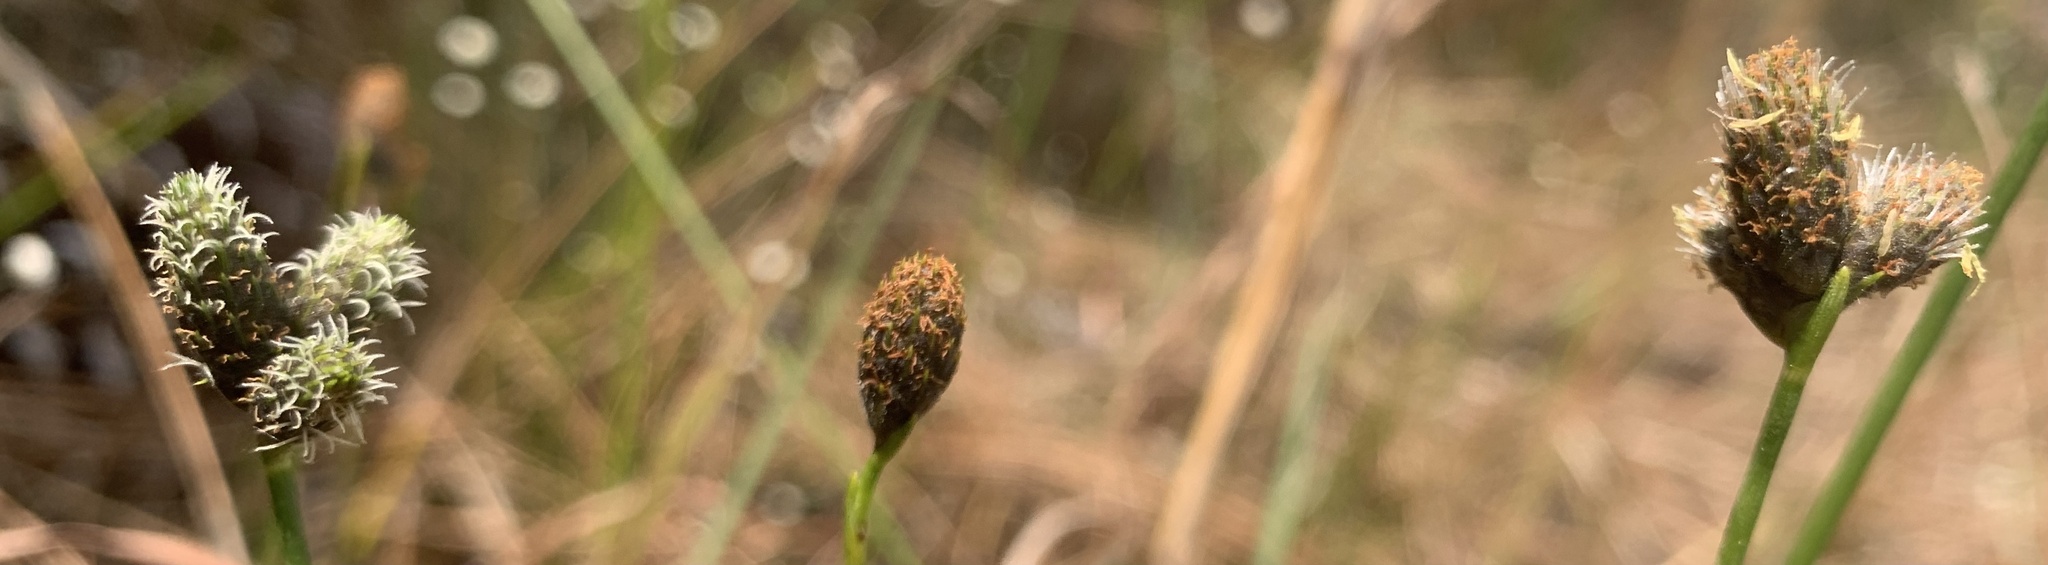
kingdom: Plantae
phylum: Tracheophyta
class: Liliopsida
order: Poales
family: Cyperaceae
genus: Fuirena
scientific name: Fuirena scirpoidea
